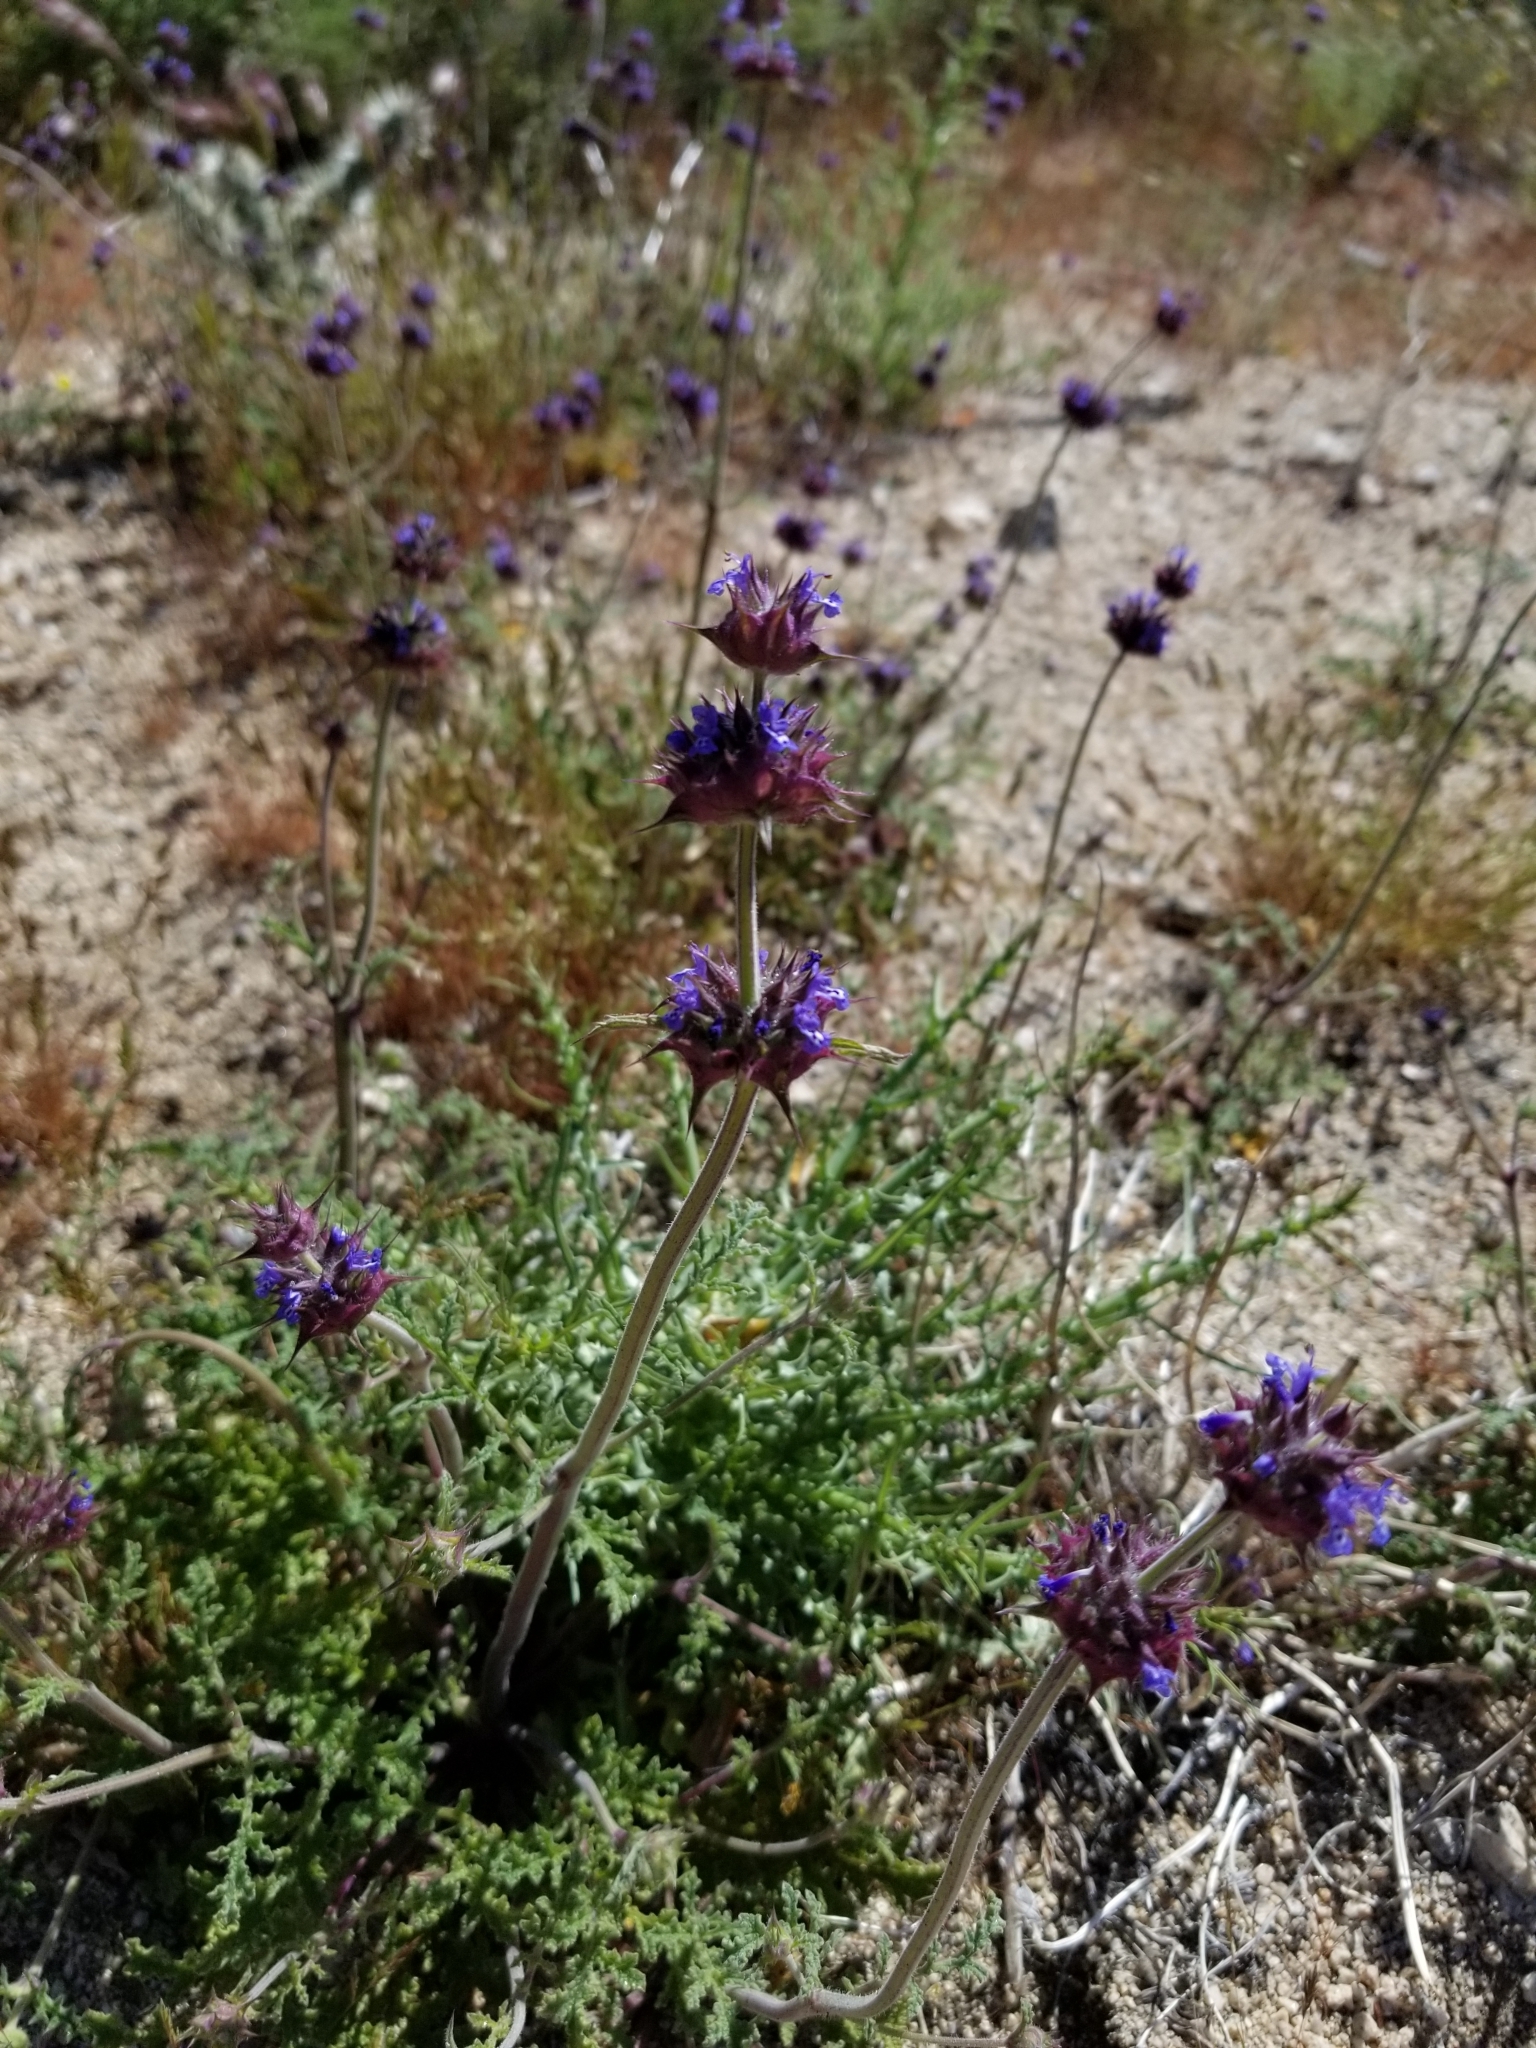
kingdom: Plantae
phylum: Tracheophyta
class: Magnoliopsida
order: Lamiales
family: Lamiaceae
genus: Salvia
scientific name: Salvia columbariae
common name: Chia
